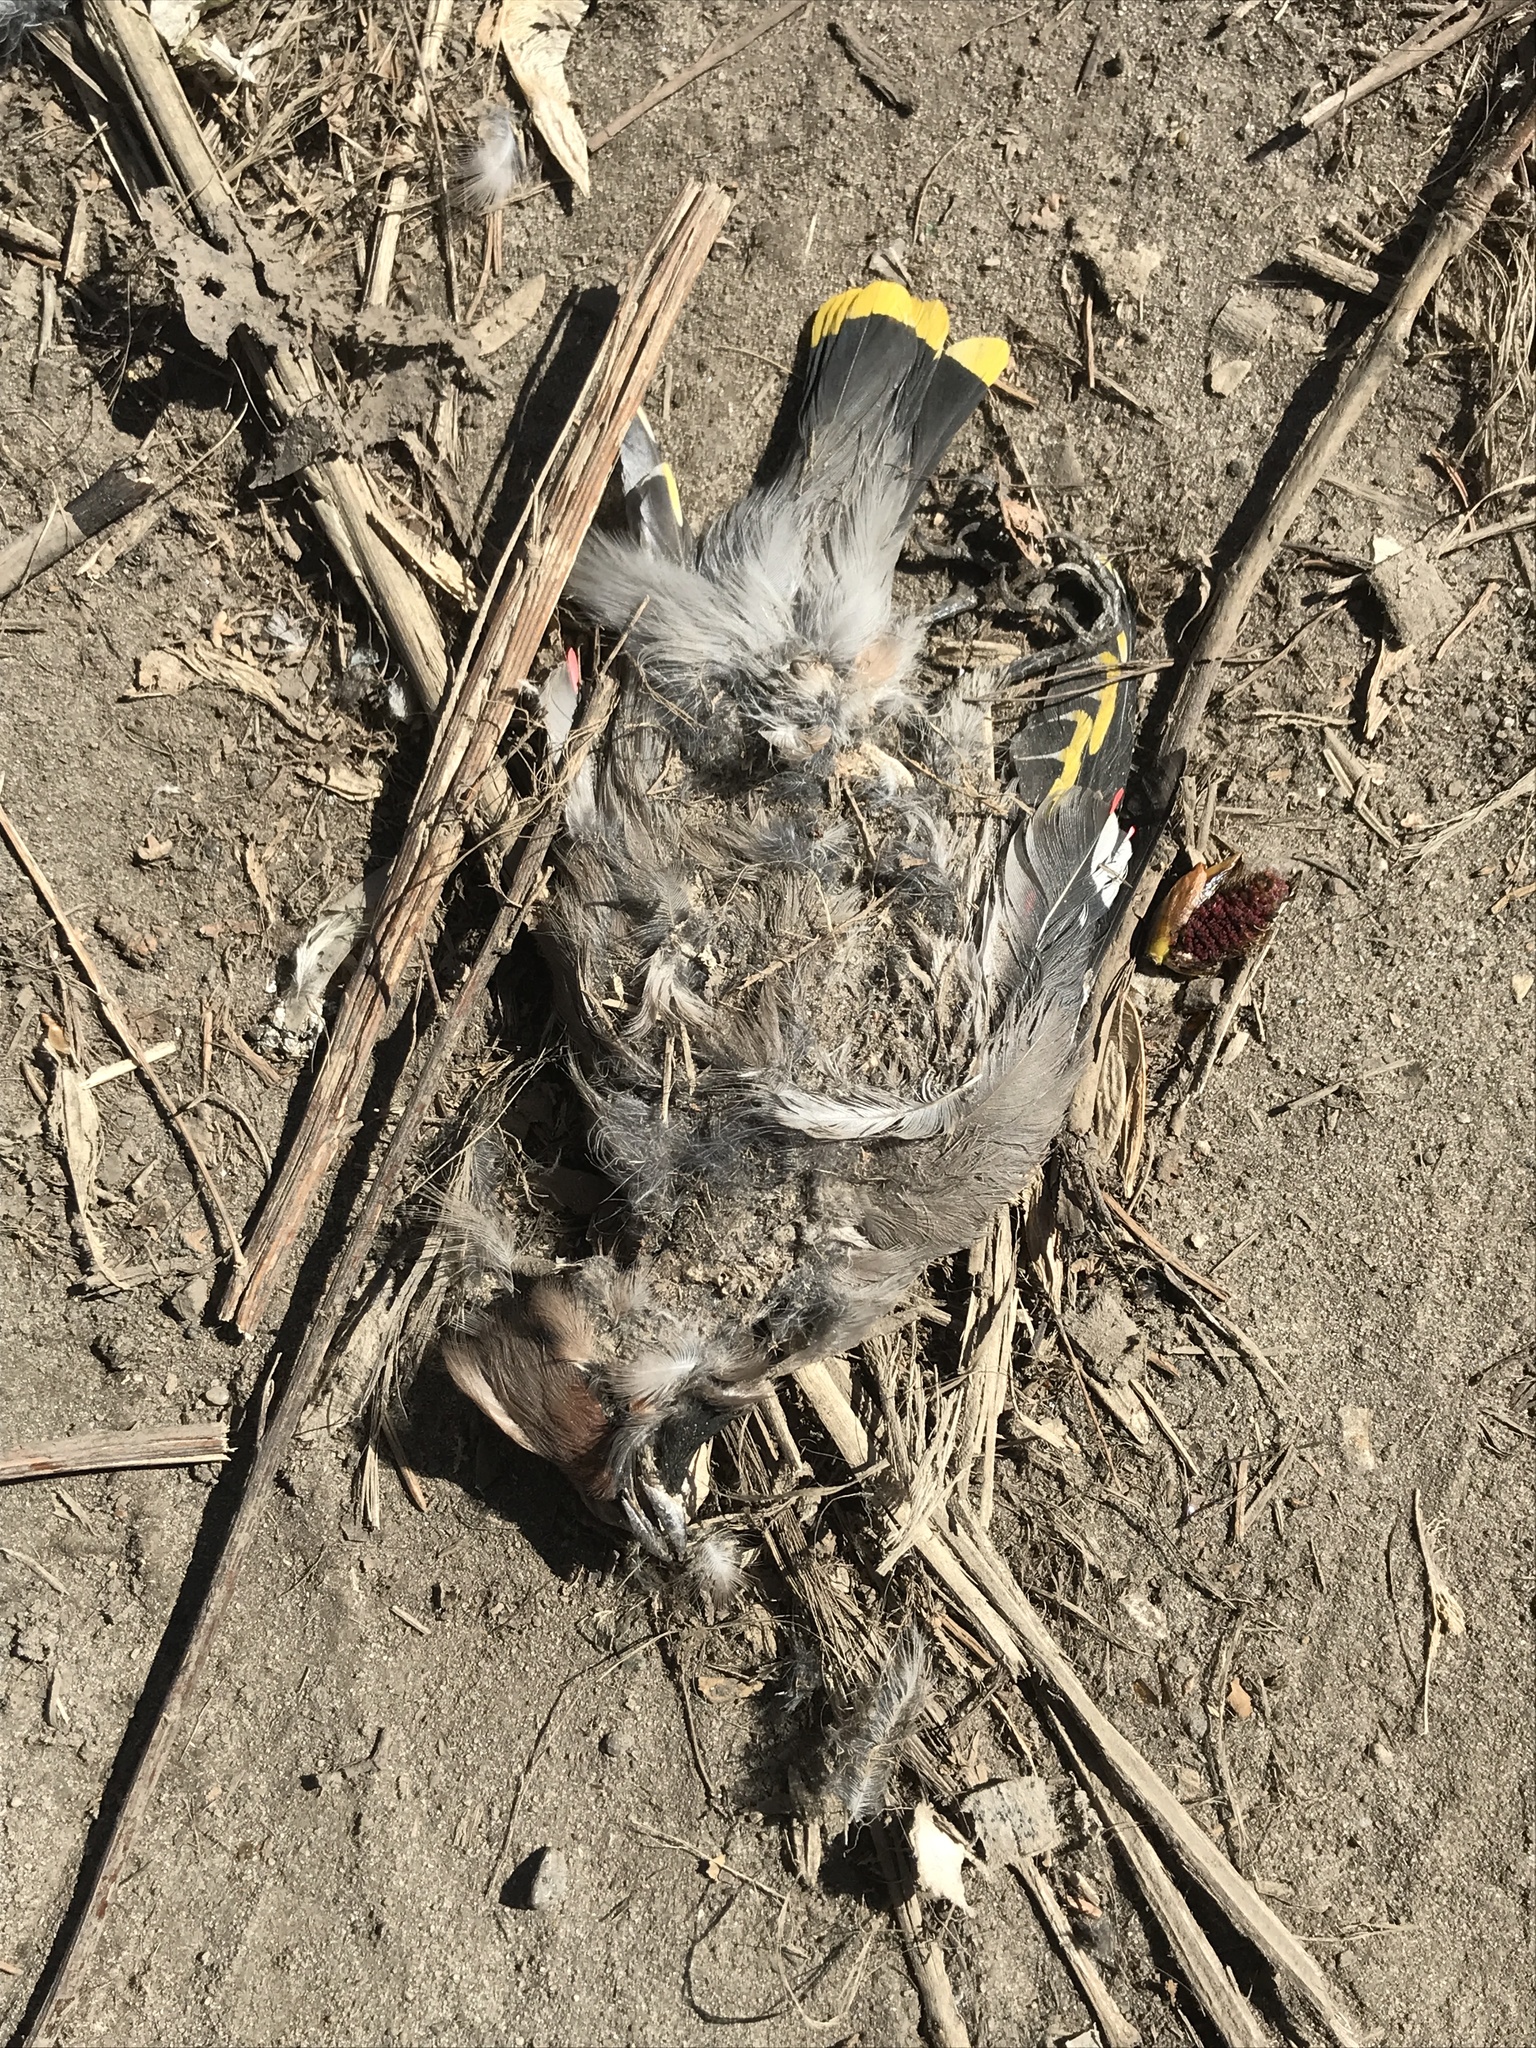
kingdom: Animalia
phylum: Chordata
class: Aves
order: Passeriformes
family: Bombycillidae
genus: Bombycilla
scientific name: Bombycilla garrulus
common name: Bohemian waxwing
